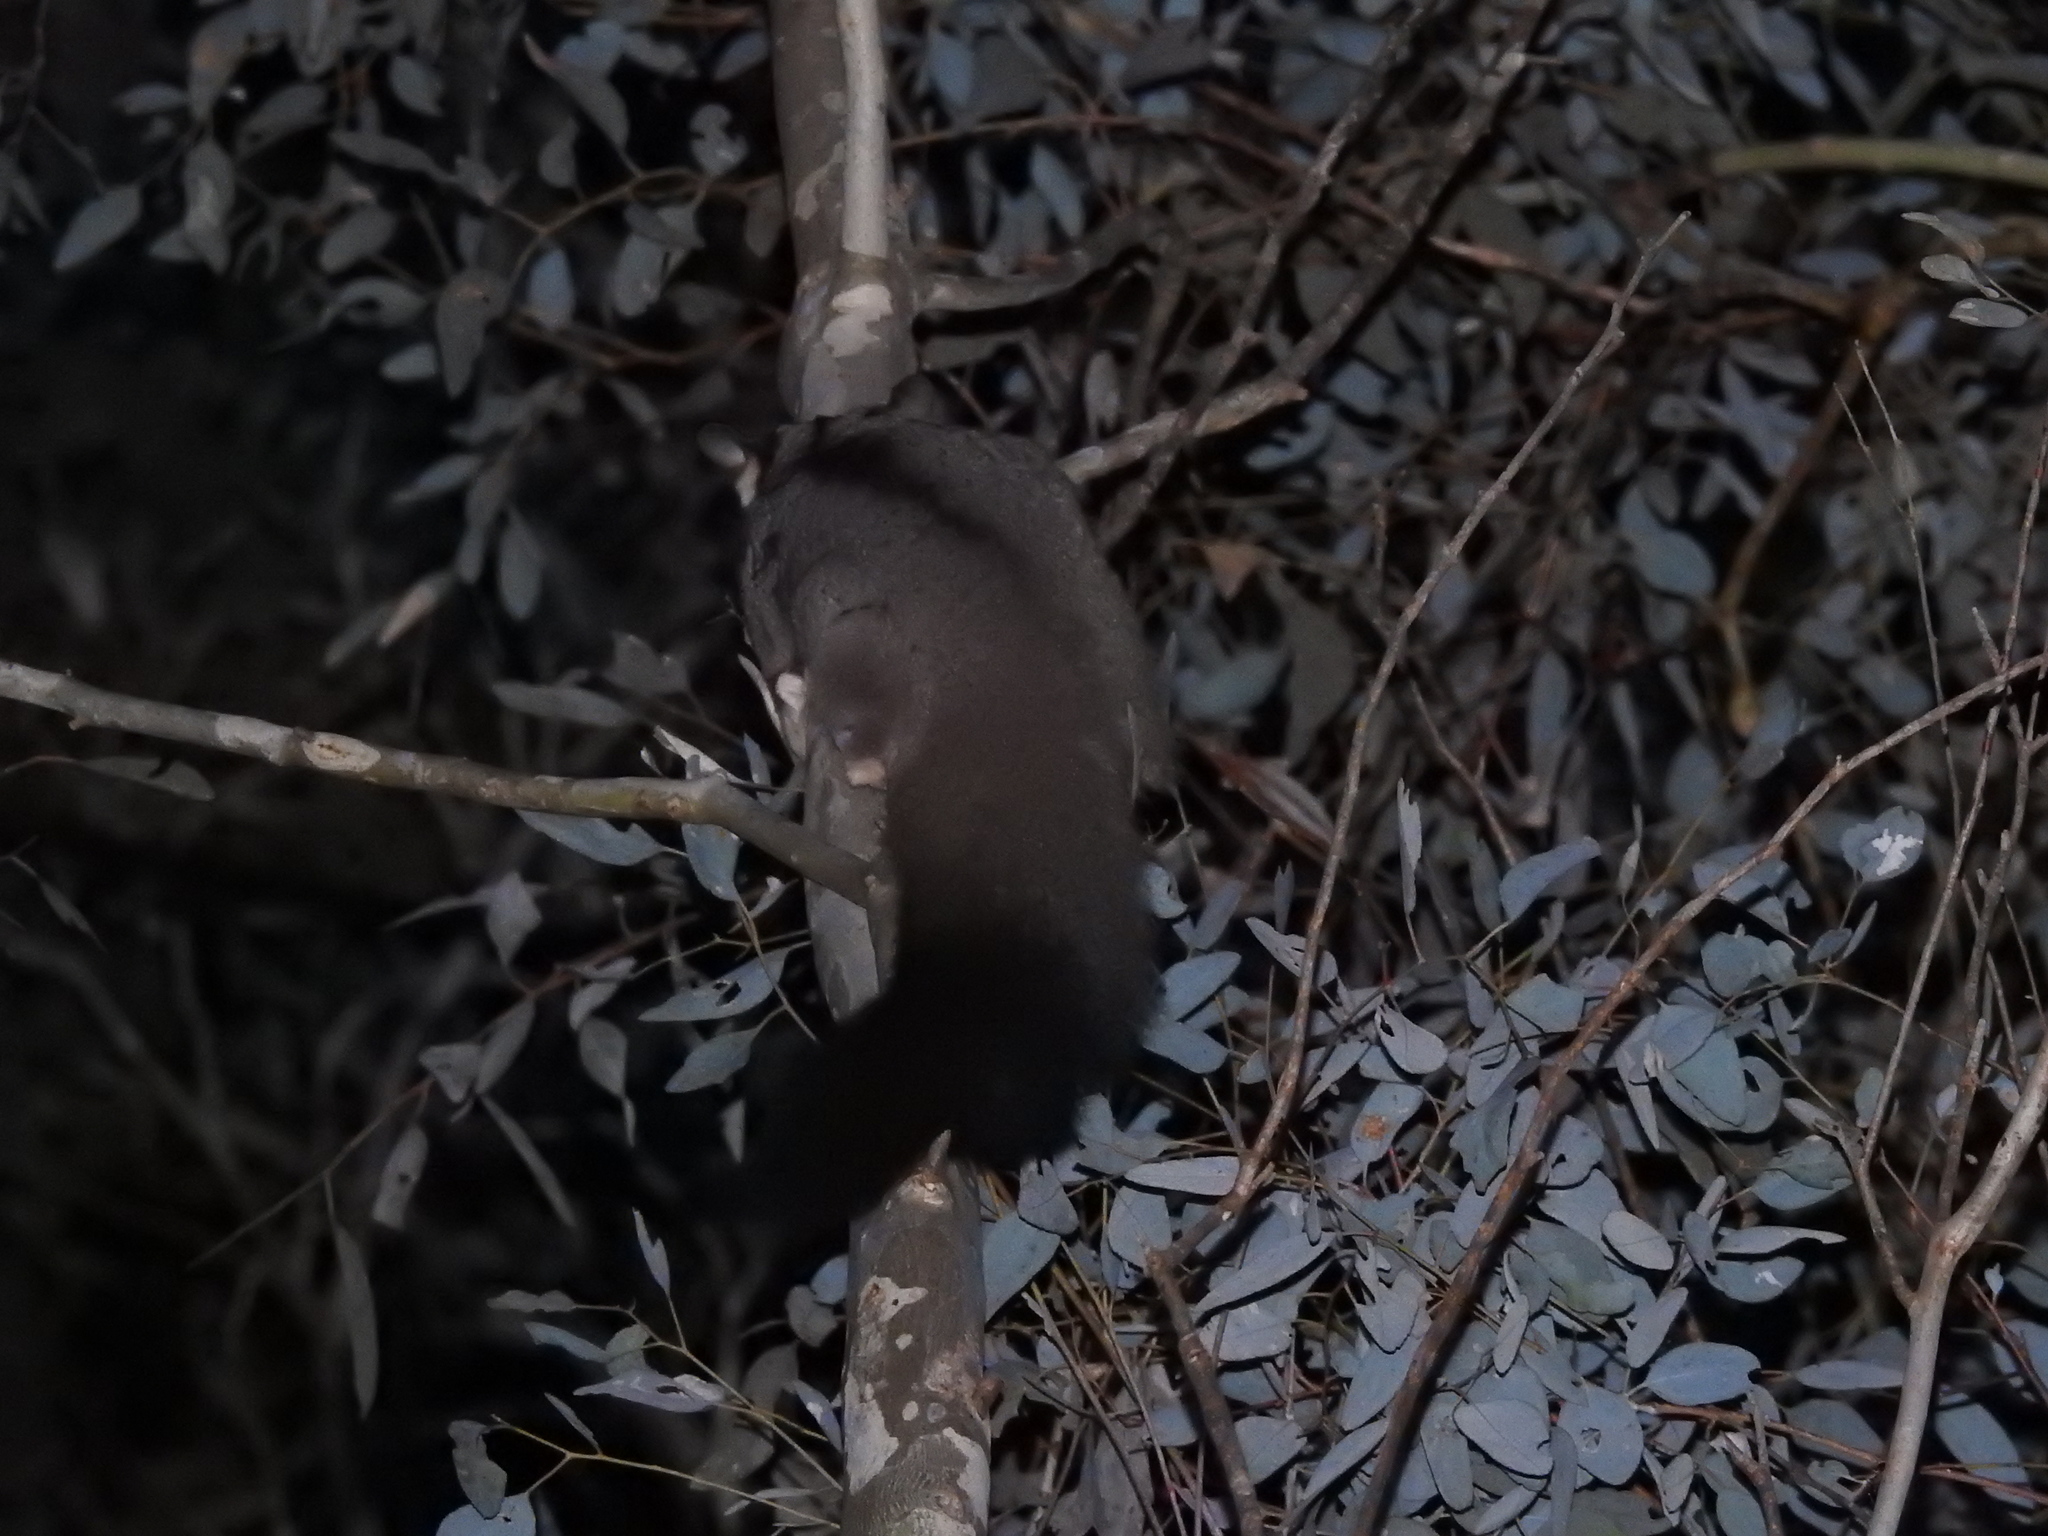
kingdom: Animalia
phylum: Chordata
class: Mammalia
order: Diprotodontia
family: Petauridae
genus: Petaurus
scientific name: Petaurus norfolcensis
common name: Squirrel glider
